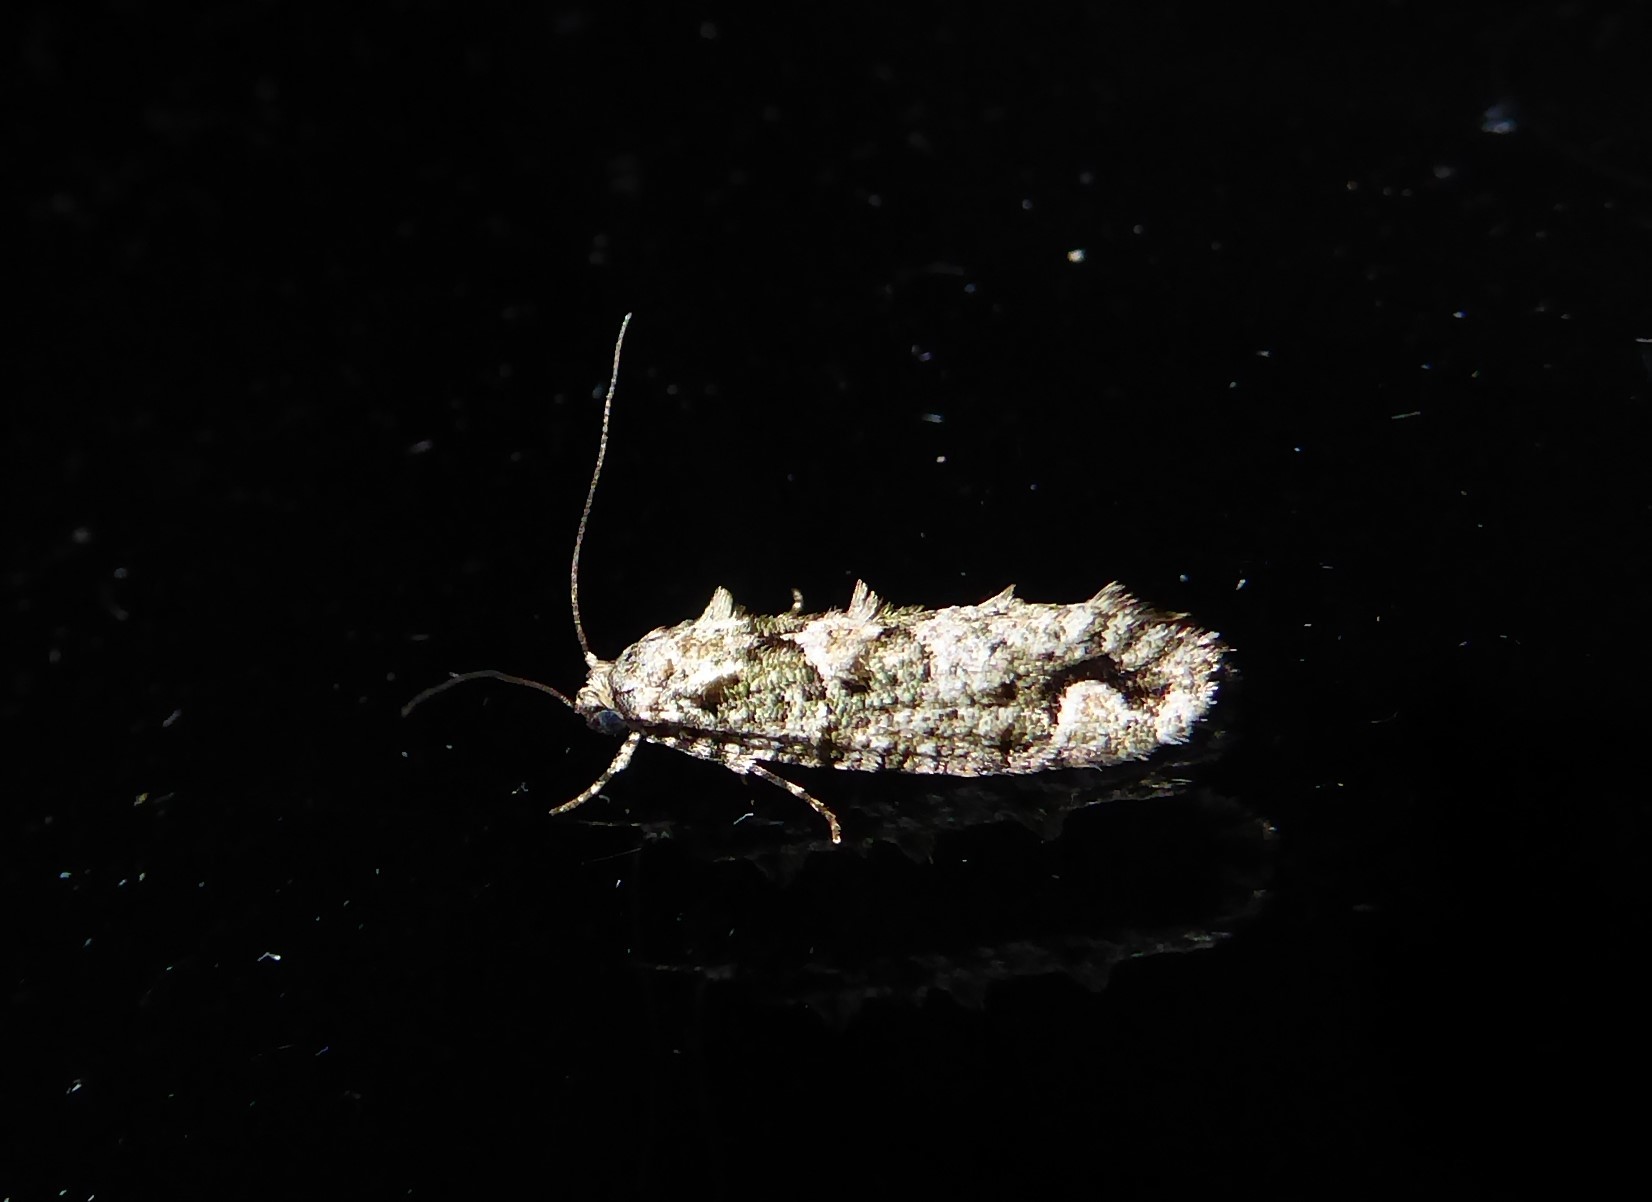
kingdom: Animalia
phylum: Arthropoda
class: Insecta
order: Lepidoptera
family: Tineidae
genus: Lysiphragma
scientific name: Lysiphragma howesii
